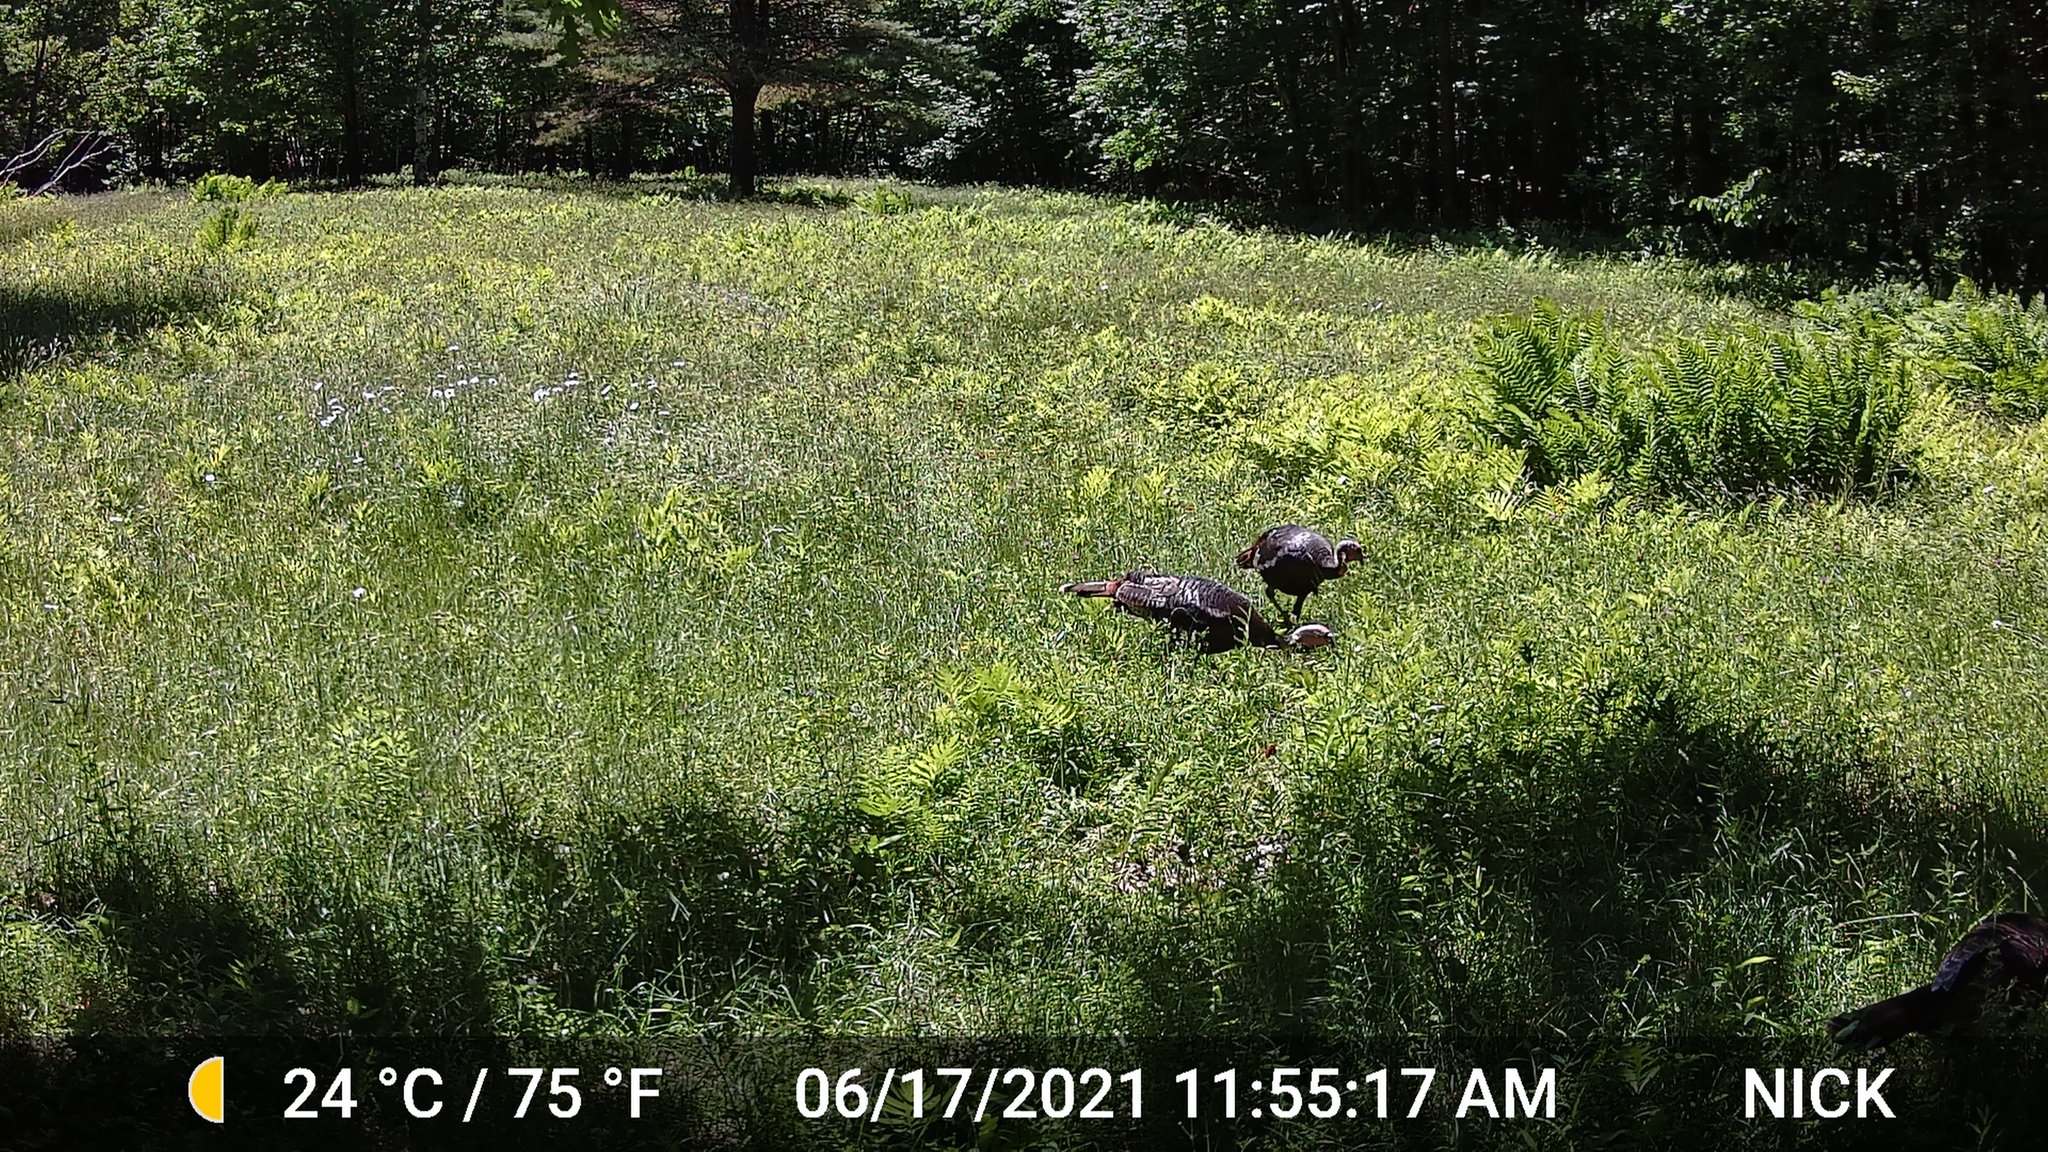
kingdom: Animalia
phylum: Chordata
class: Aves
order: Galliformes
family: Phasianidae
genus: Meleagris
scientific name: Meleagris gallopavo
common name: Wild turkey
